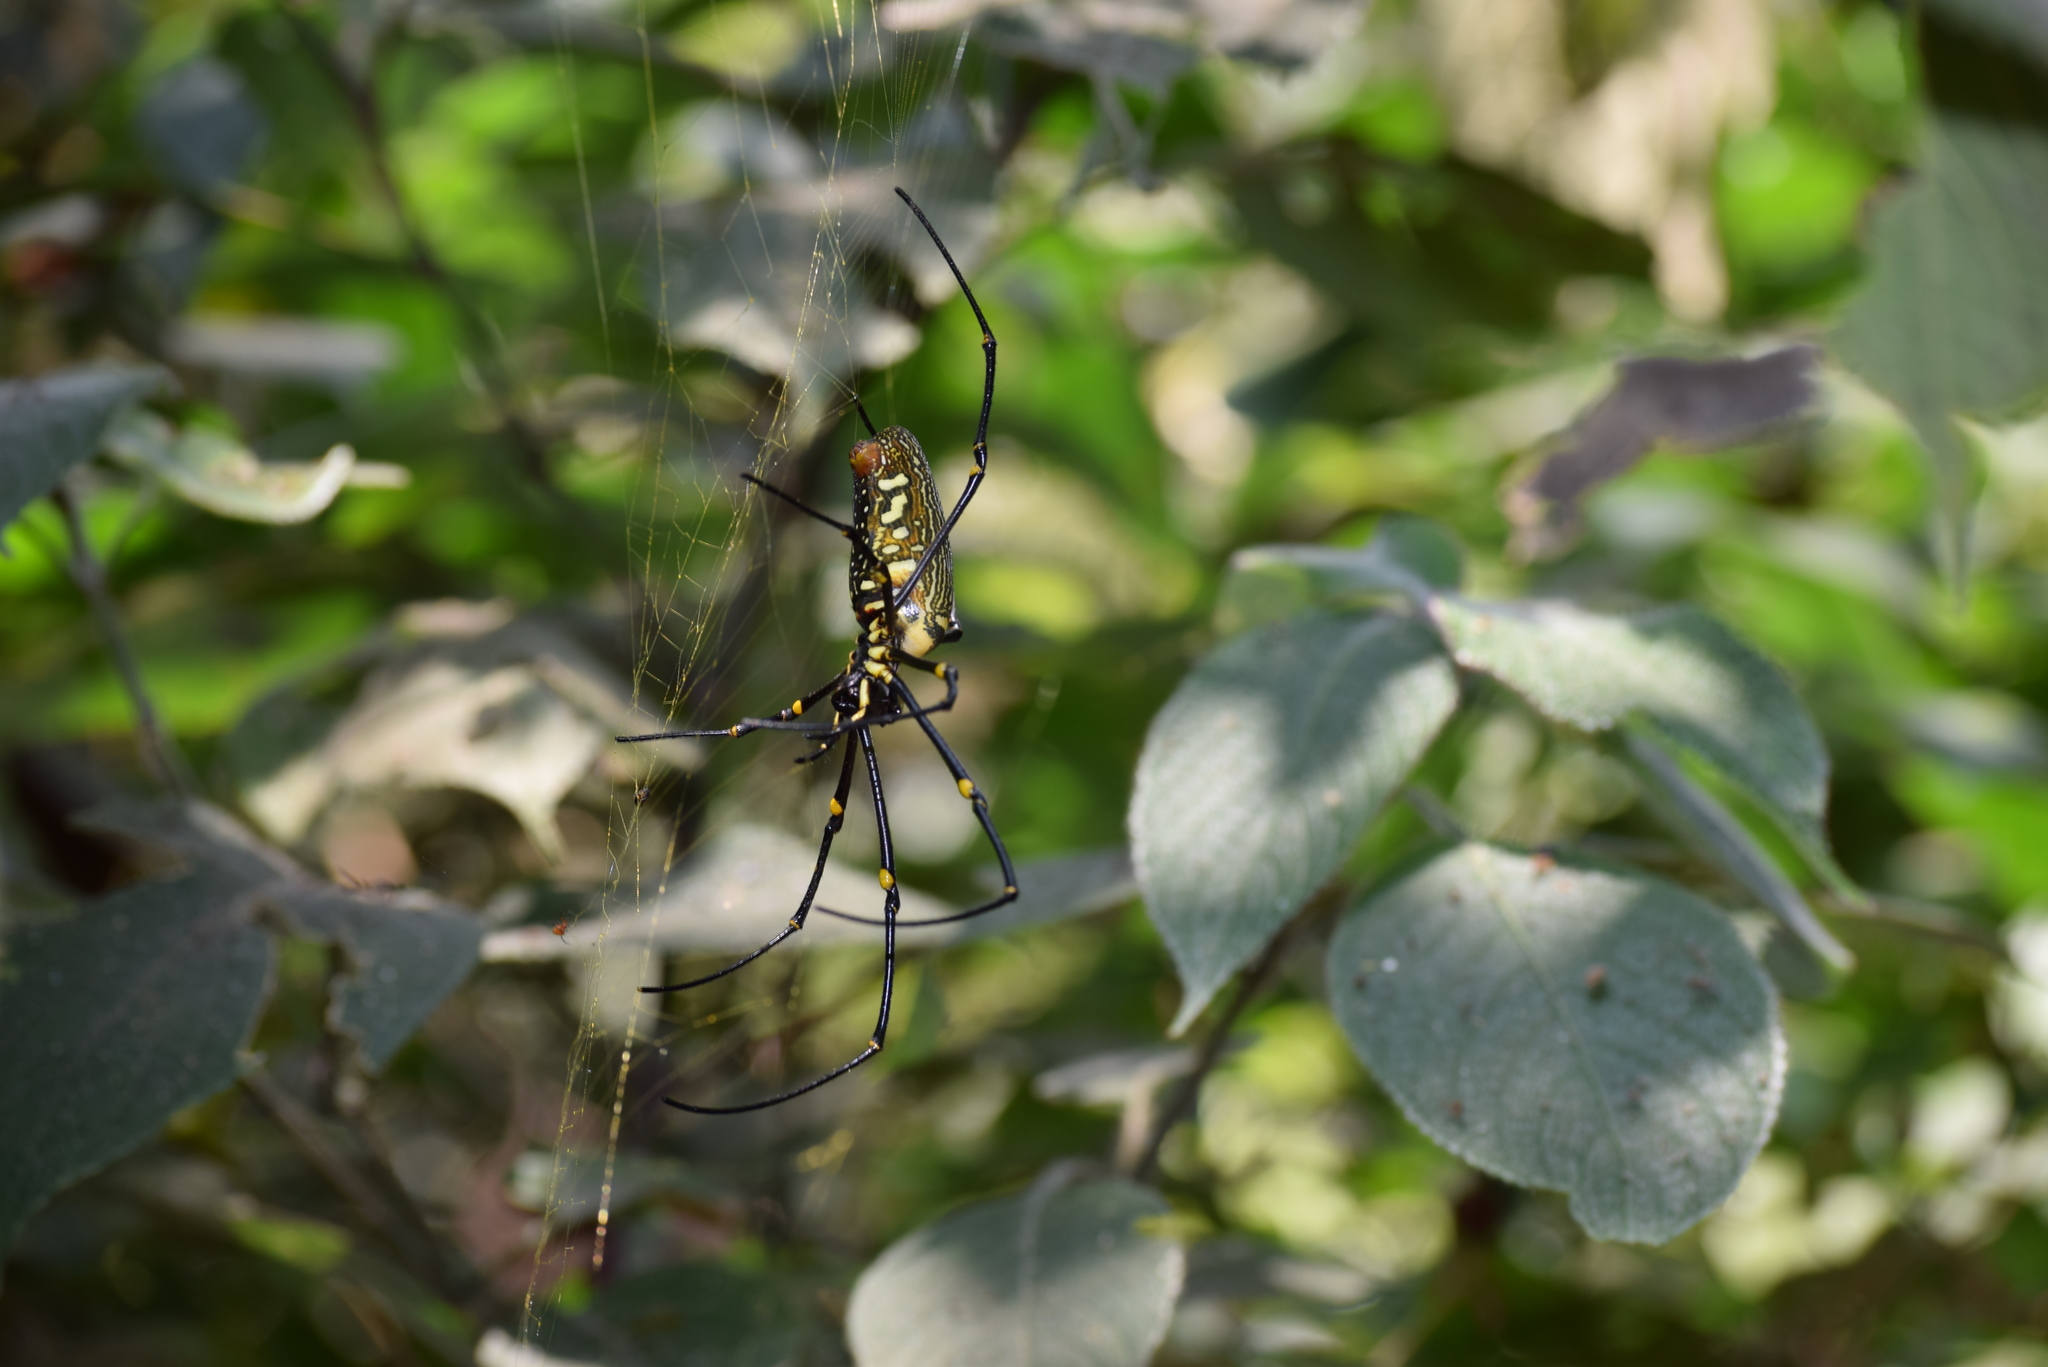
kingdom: Animalia
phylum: Arthropoda
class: Arachnida
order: Araneae
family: Araneidae
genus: Nephila
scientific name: Nephila pilipes
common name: Giant golden orb weaver
